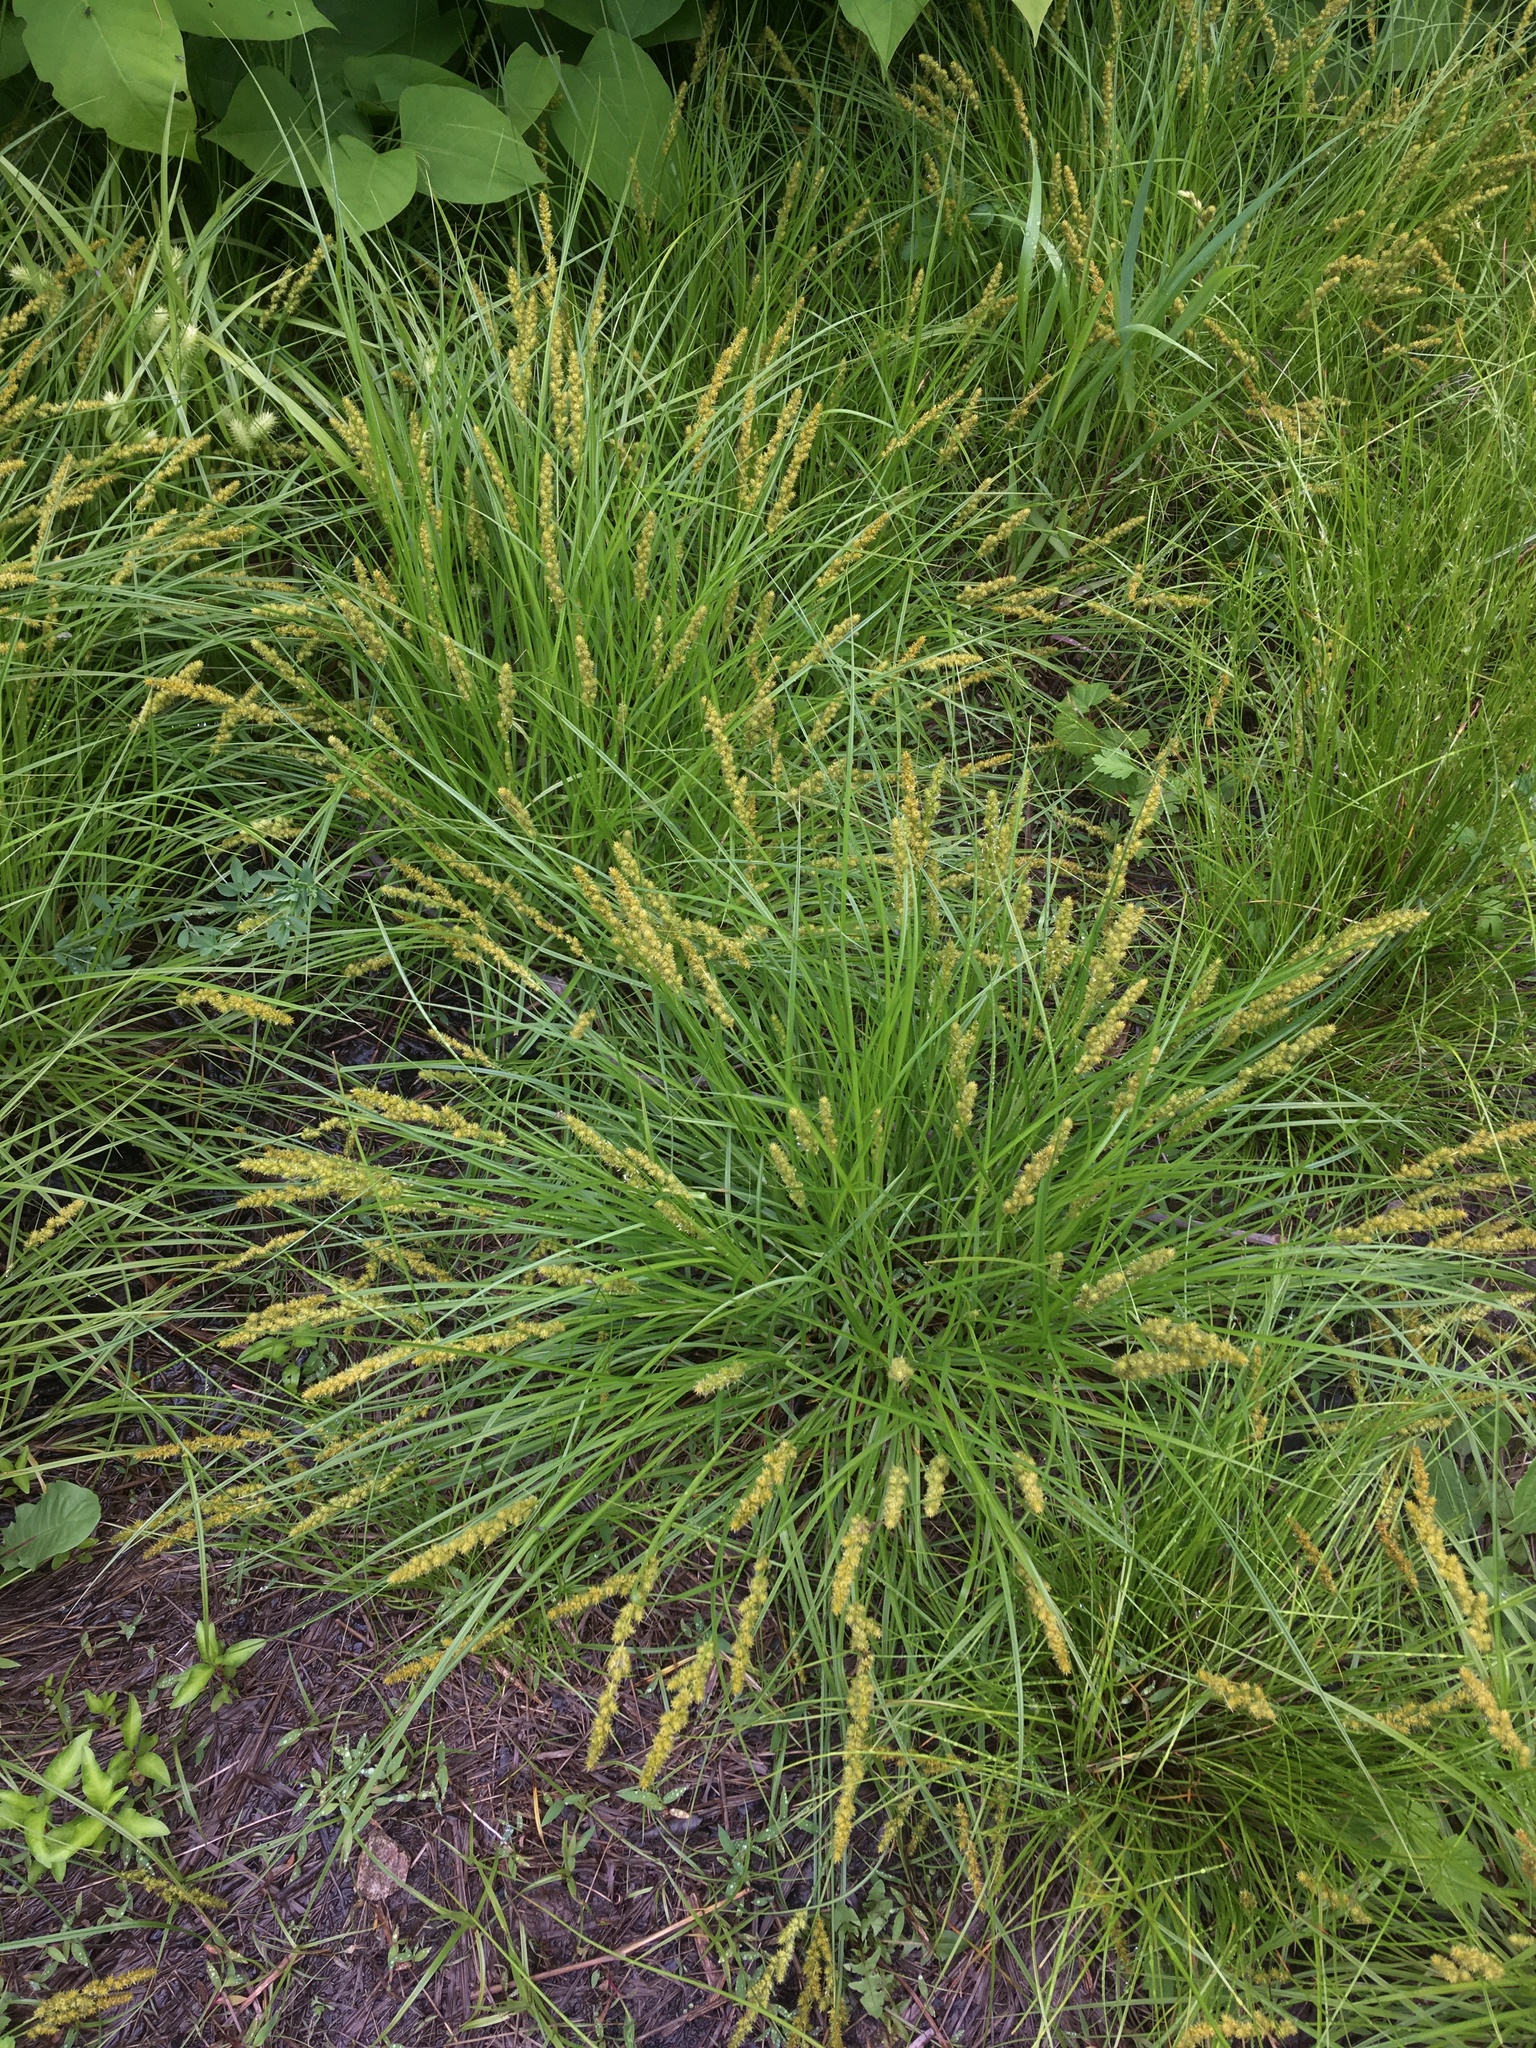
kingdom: Plantae
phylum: Tracheophyta
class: Liliopsida
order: Poales
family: Cyperaceae
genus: Carex
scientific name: Carex vulpinoidea
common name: American fox-sedge
